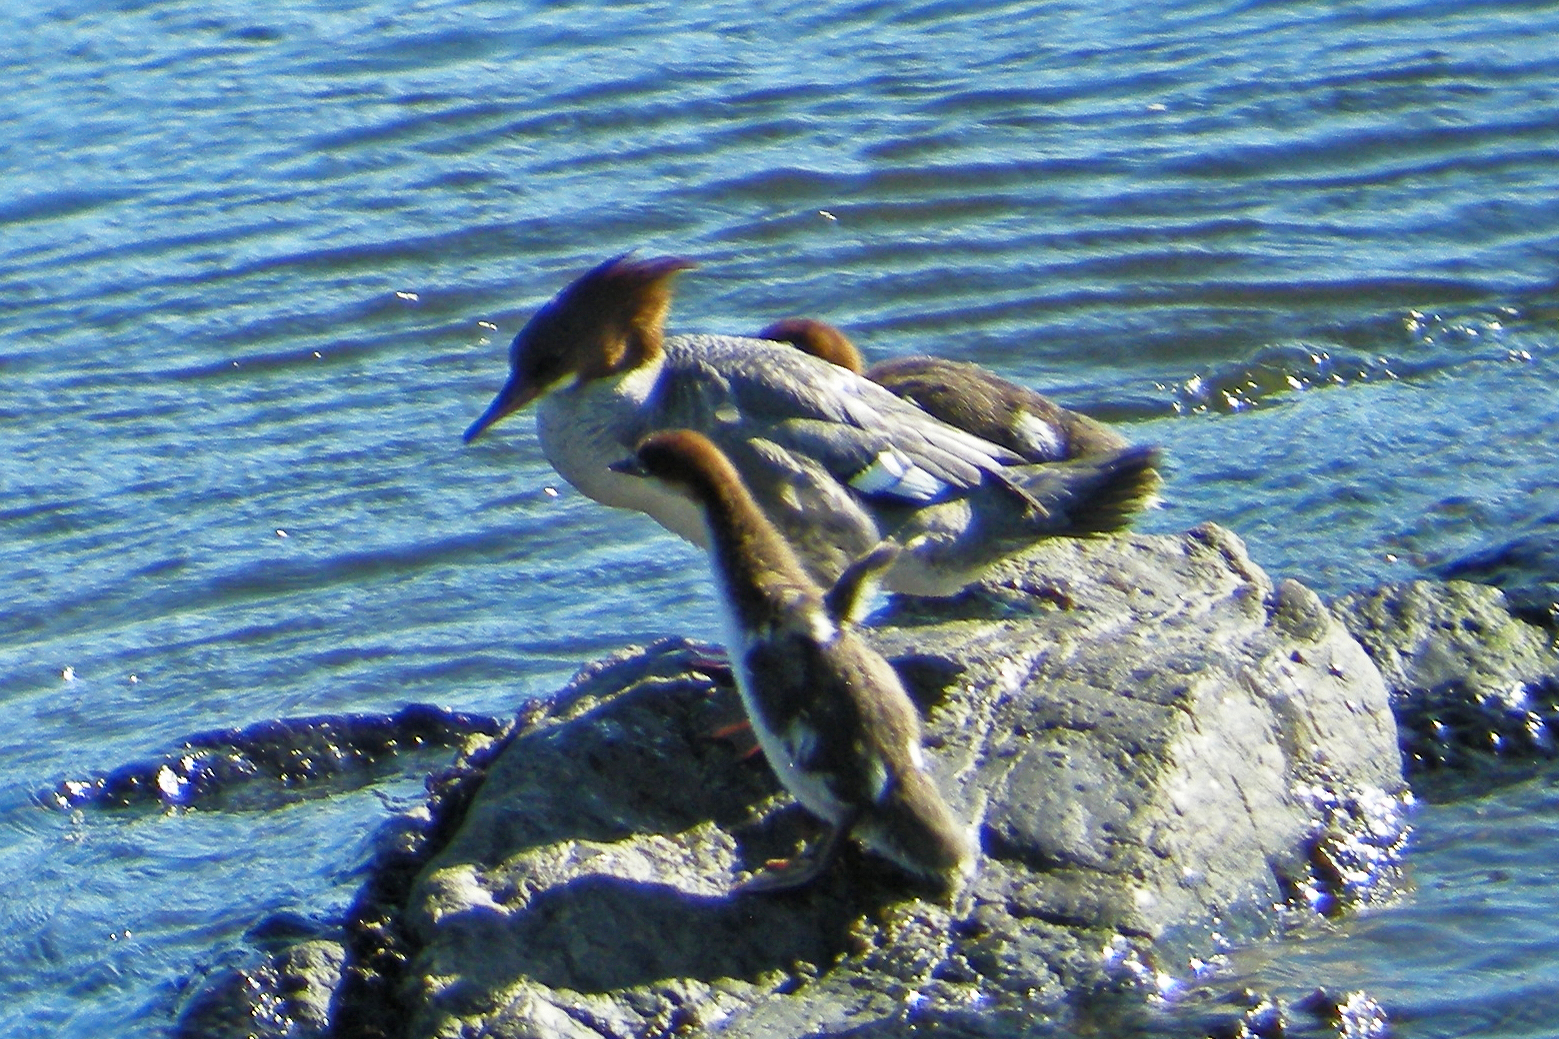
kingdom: Animalia
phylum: Chordata
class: Aves
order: Anseriformes
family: Anatidae
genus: Mergus
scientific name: Mergus merganser
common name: Common merganser
